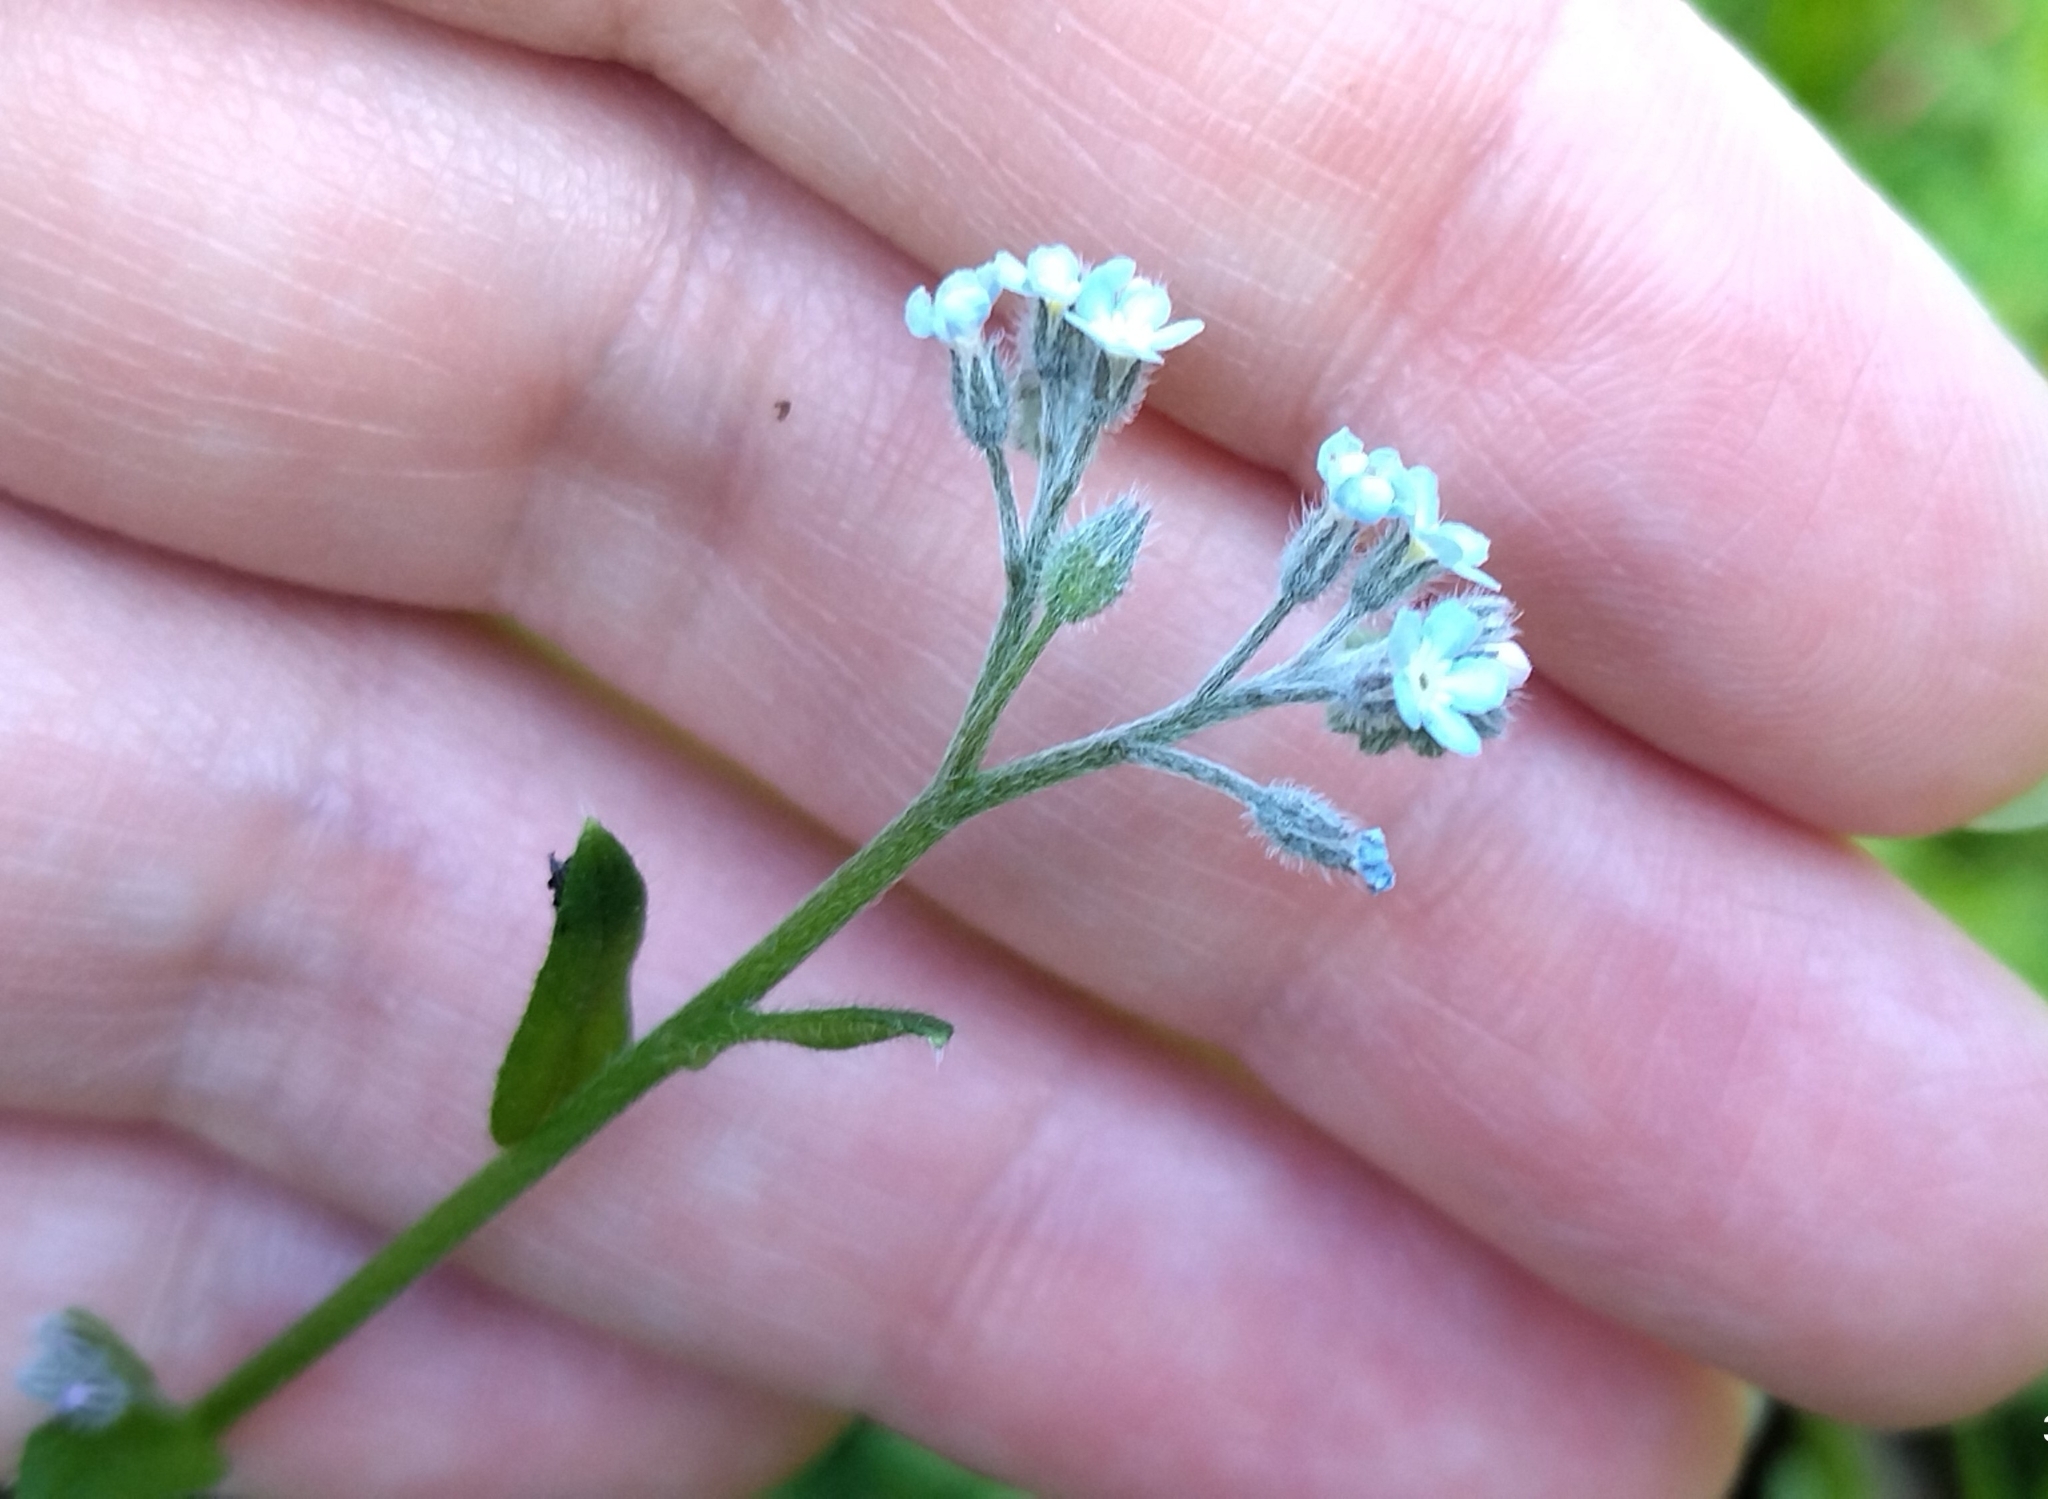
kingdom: Plantae
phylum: Tracheophyta
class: Magnoliopsida
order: Boraginales
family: Boraginaceae
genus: Myosotis
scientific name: Myosotis arvensis
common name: Field forget-me-not
